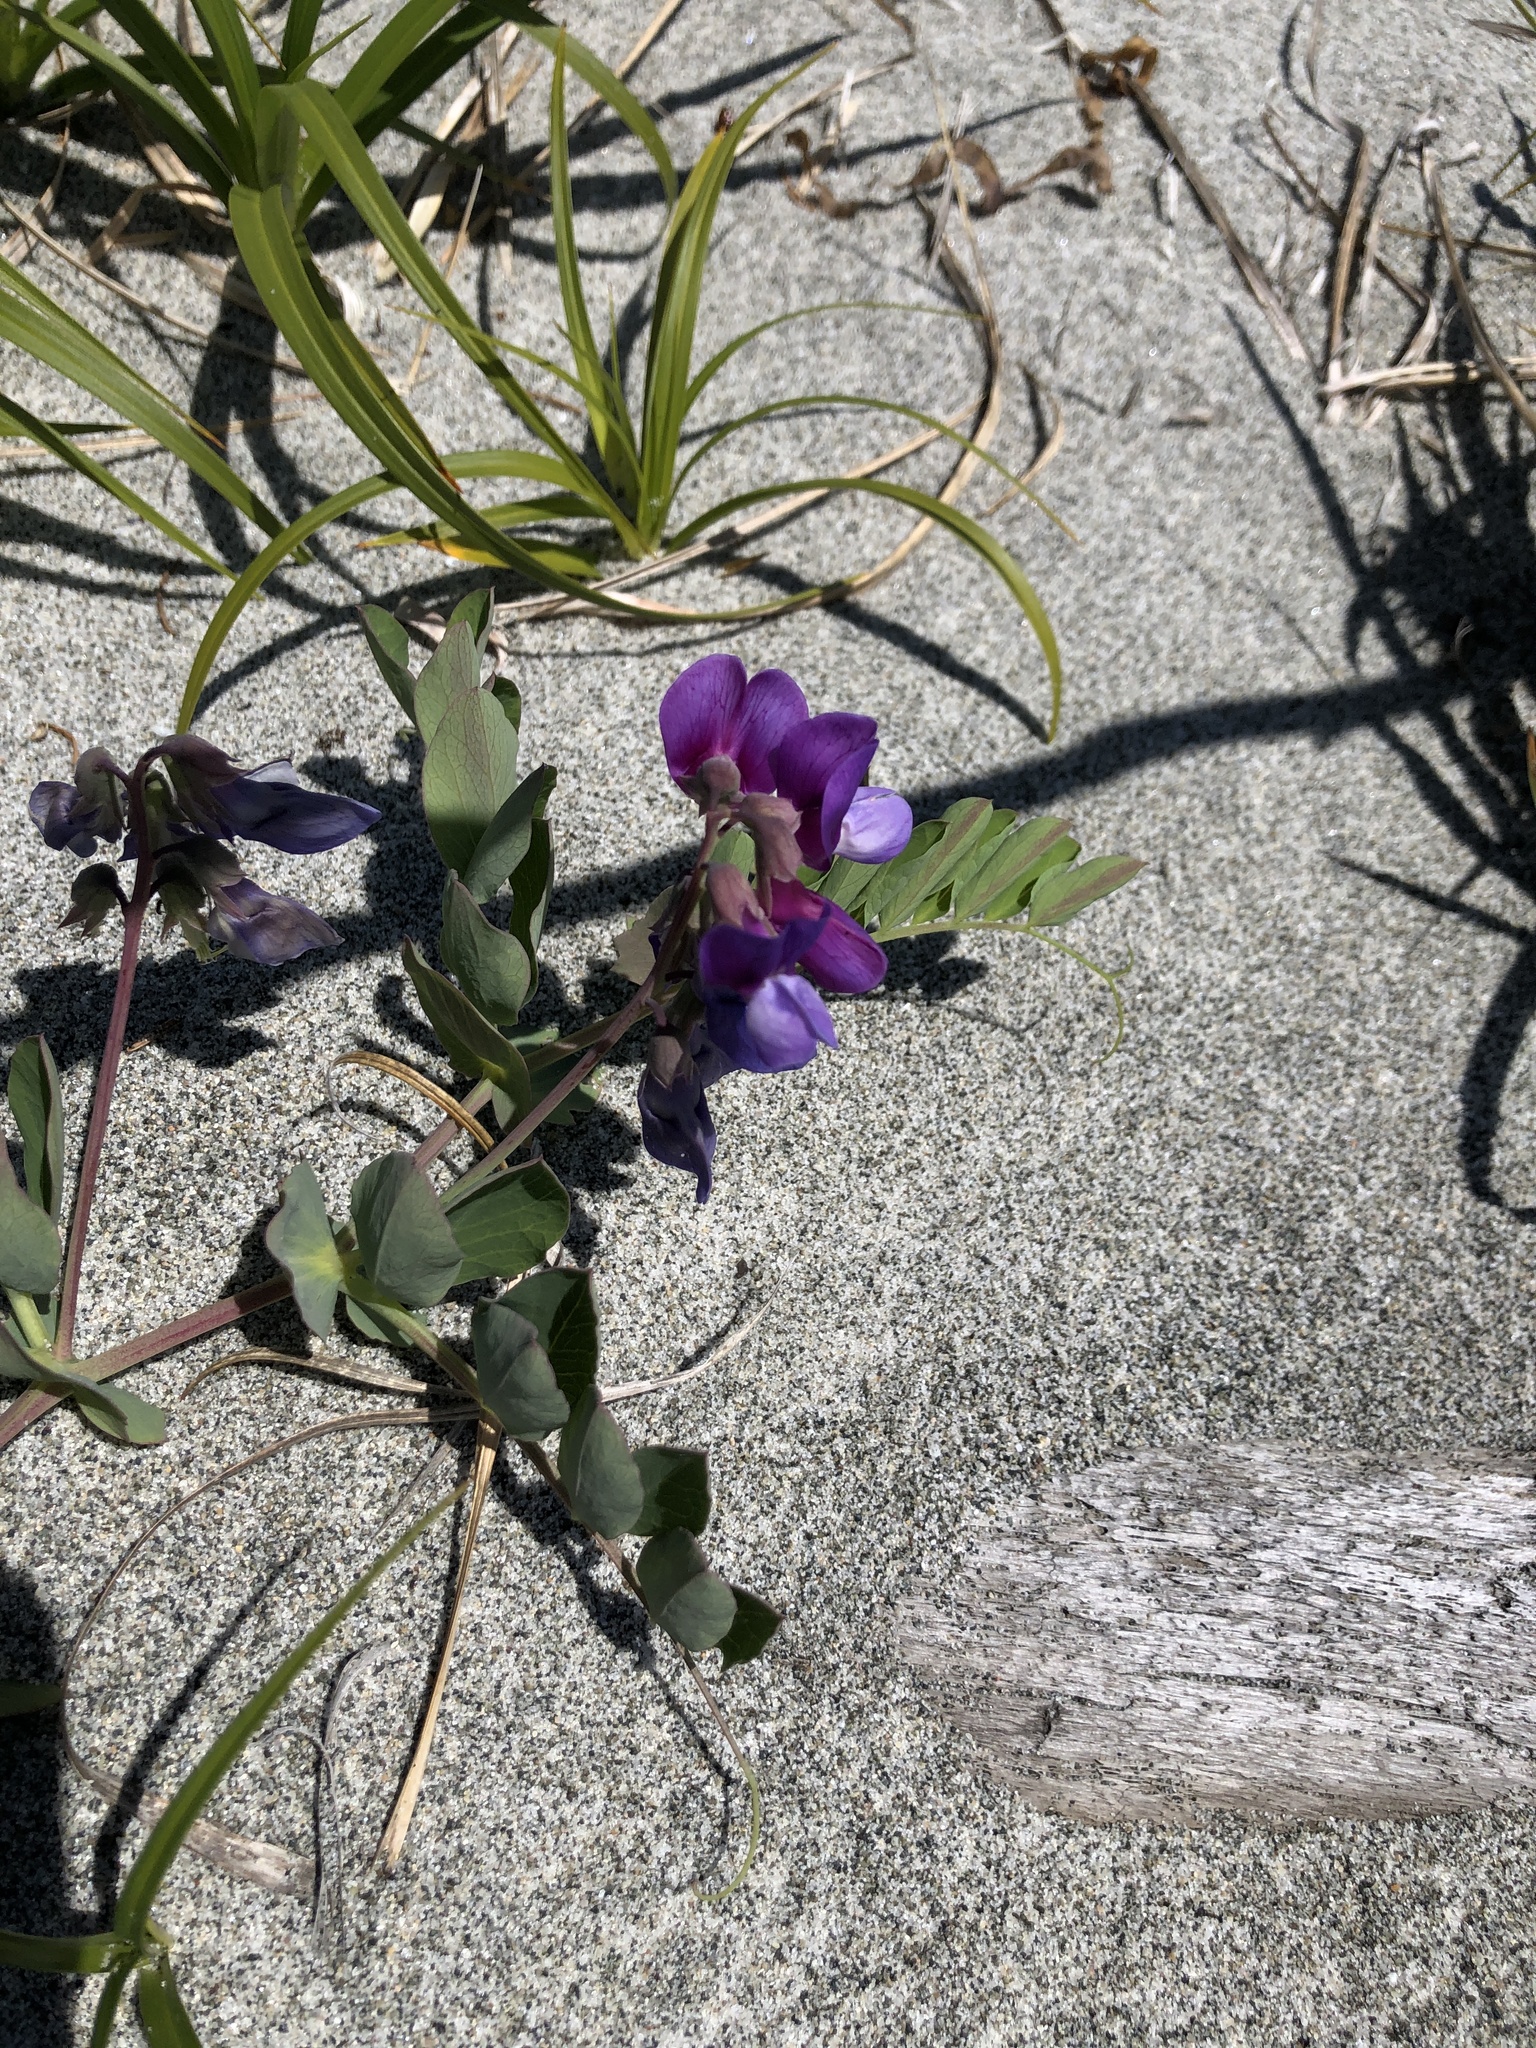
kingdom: Plantae
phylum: Tracheophyta
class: Magnoliopsida
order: Fabales
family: Fabaceae
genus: Lathyrus
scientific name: Lathyrus japonicus
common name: Sea pea
